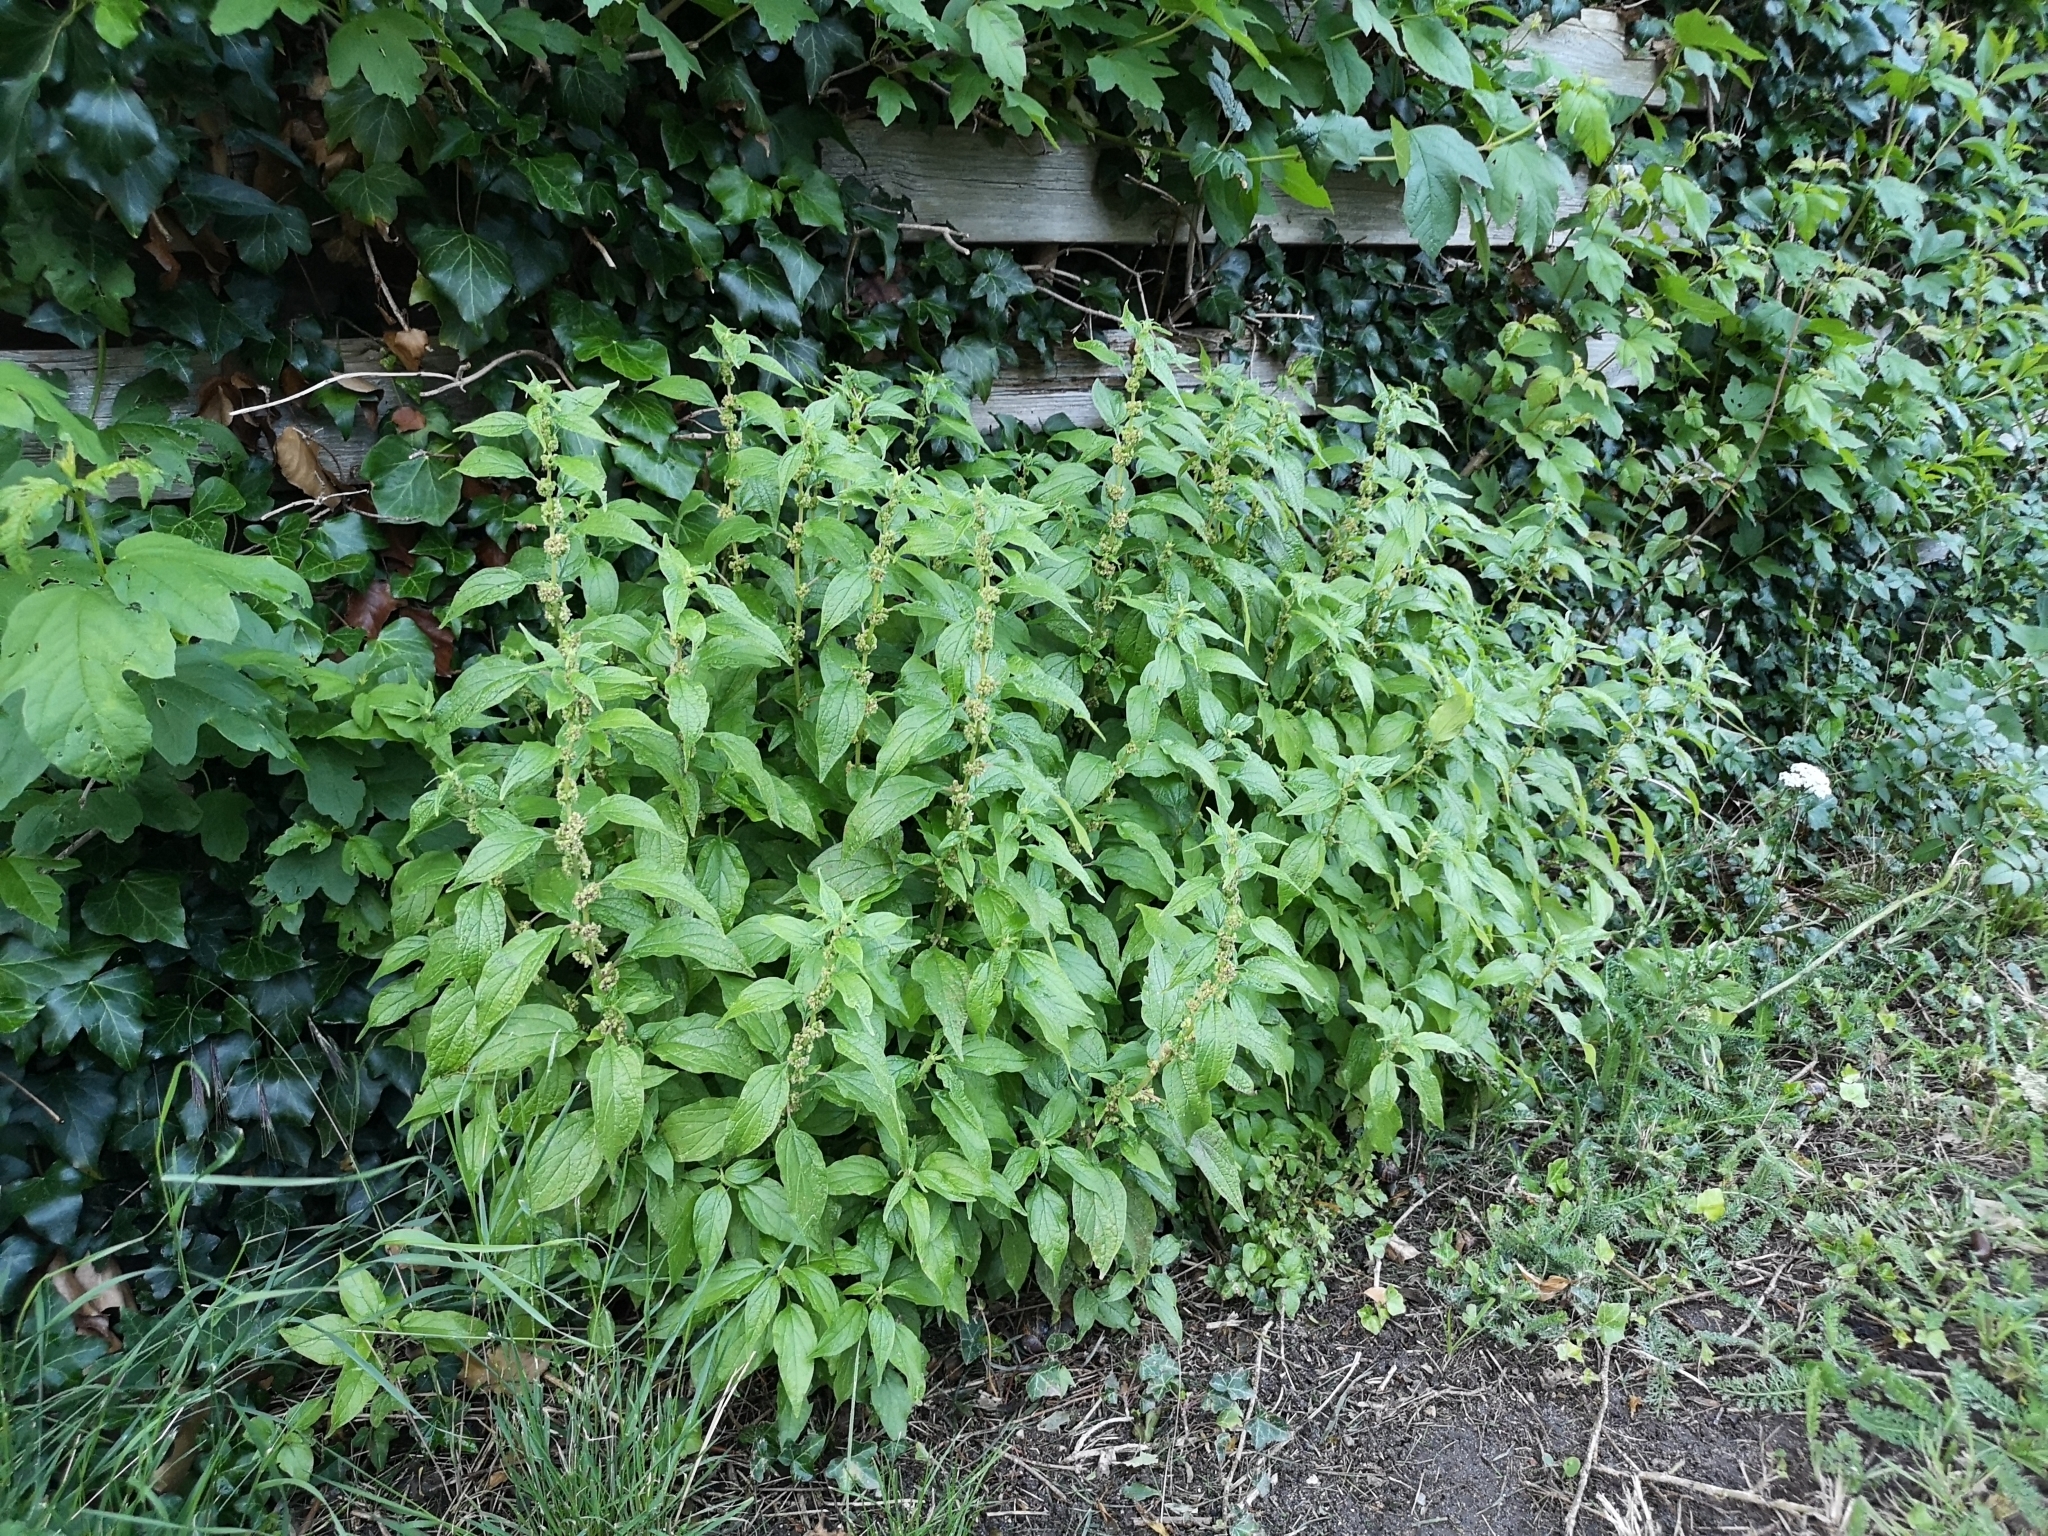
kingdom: Plantae
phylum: Tracheophyta
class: Magnoliopsida
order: Rosales
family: Urticaceae
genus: Parietaria
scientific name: Parietaria officinalis
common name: Eastern pellitory-of-the-wall
